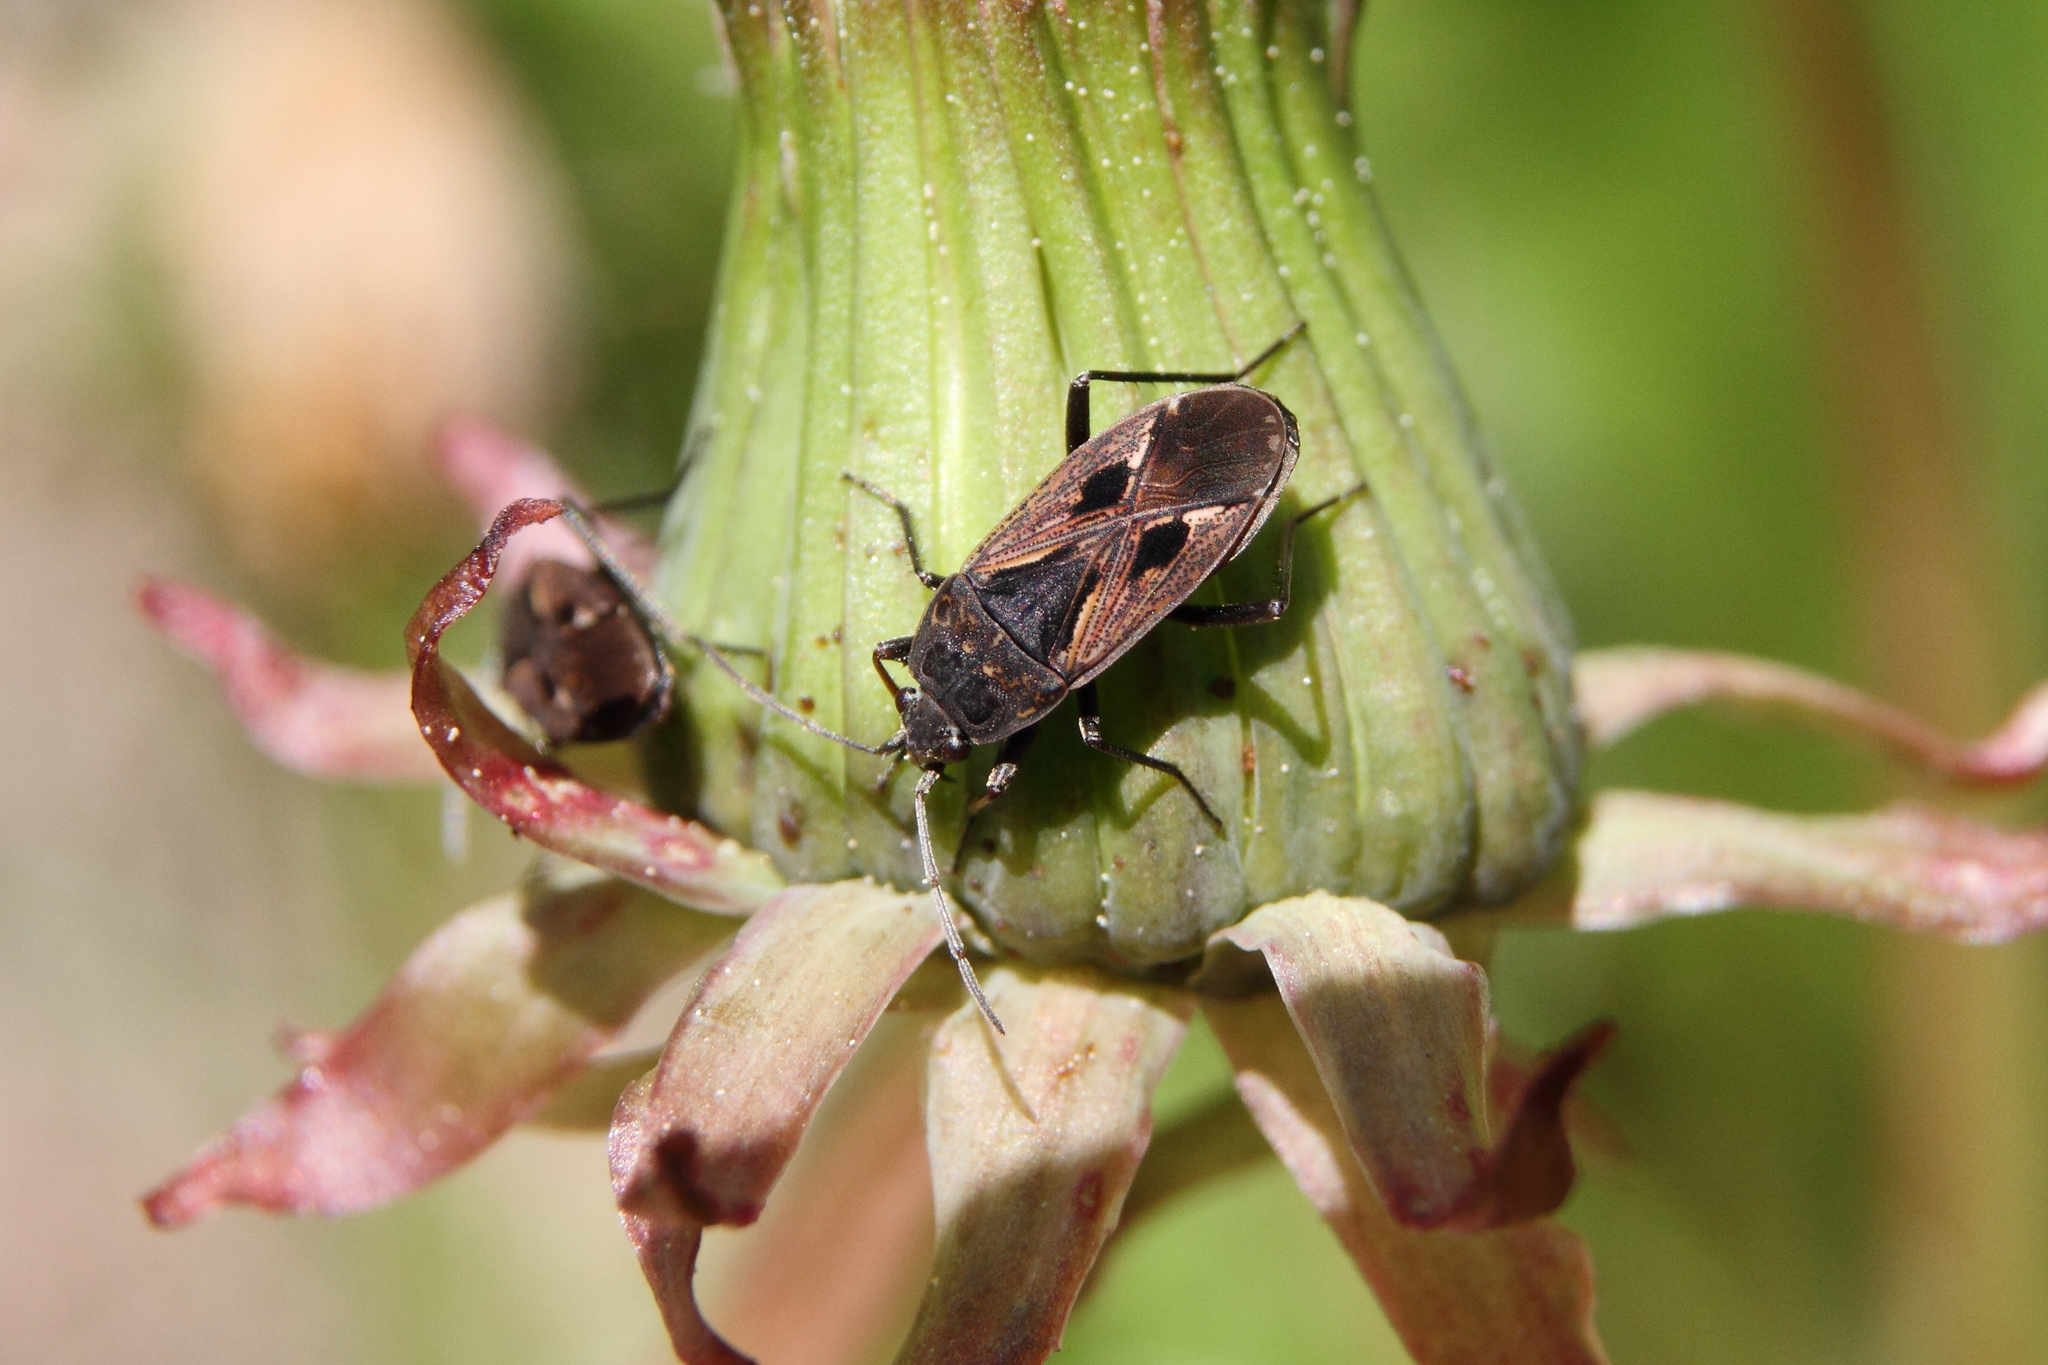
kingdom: Animalia
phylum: Arthropoda
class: Insecta
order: Hemiptera
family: Rhyparochromidae
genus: Rhyparochromus
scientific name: Rhyparochromus pini
